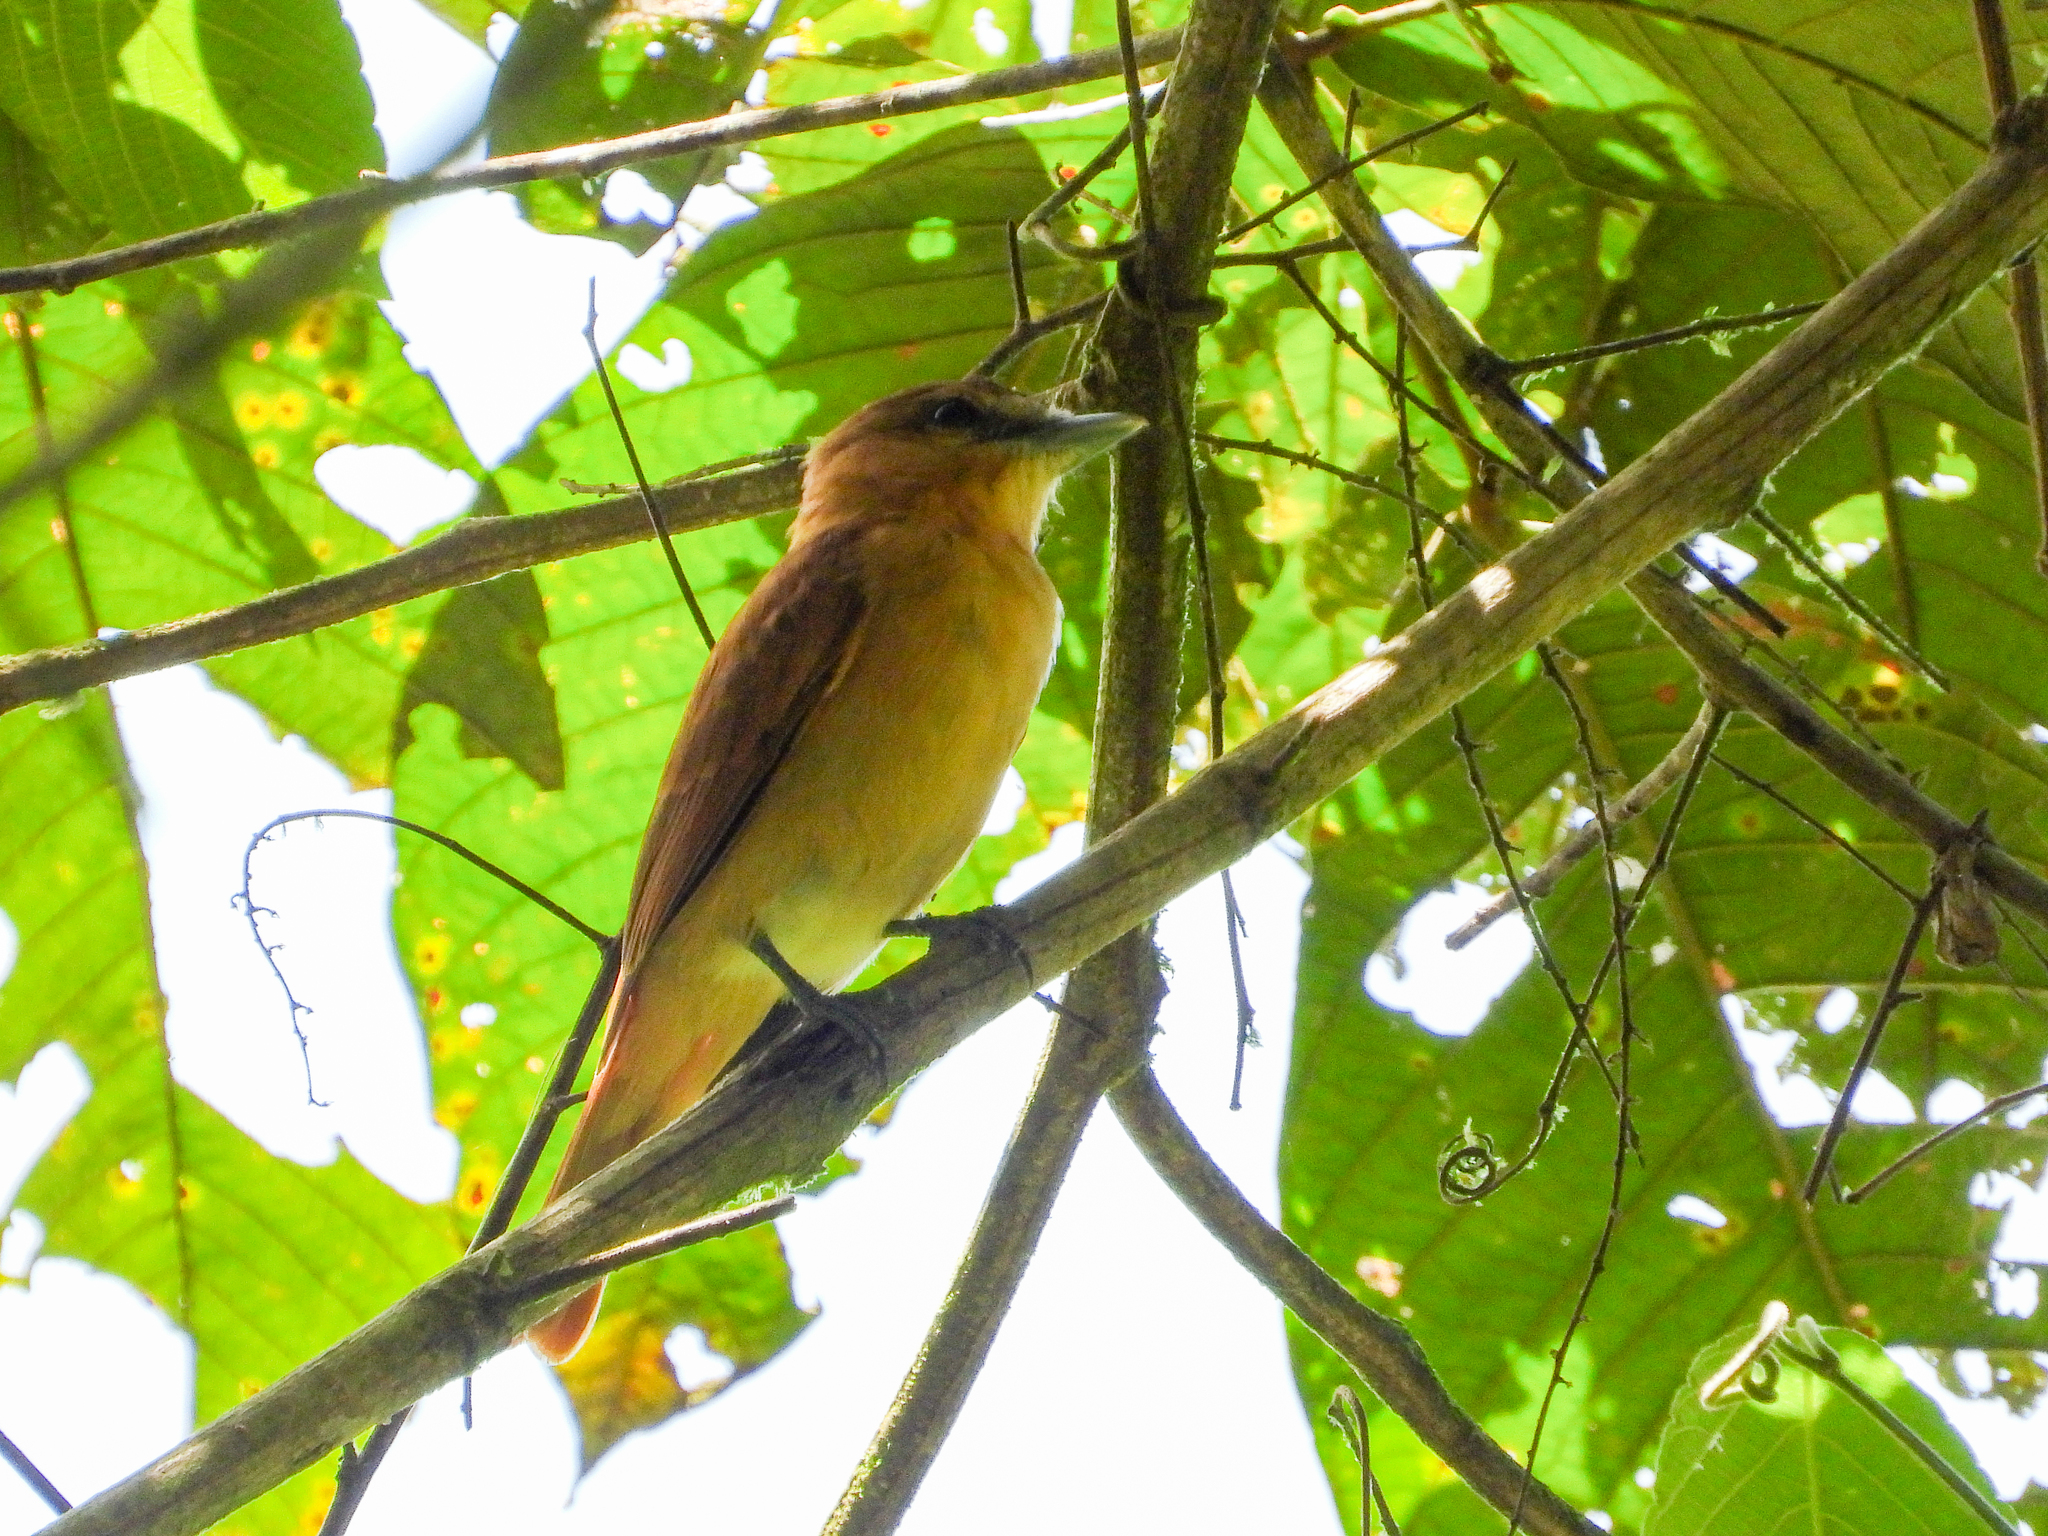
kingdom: Animalia
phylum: Chordata
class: Aves
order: Passeriformes
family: Cotingidae
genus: Pachyramphus
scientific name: Pachyramphus cinnamomeus
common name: Cinnamon becard
